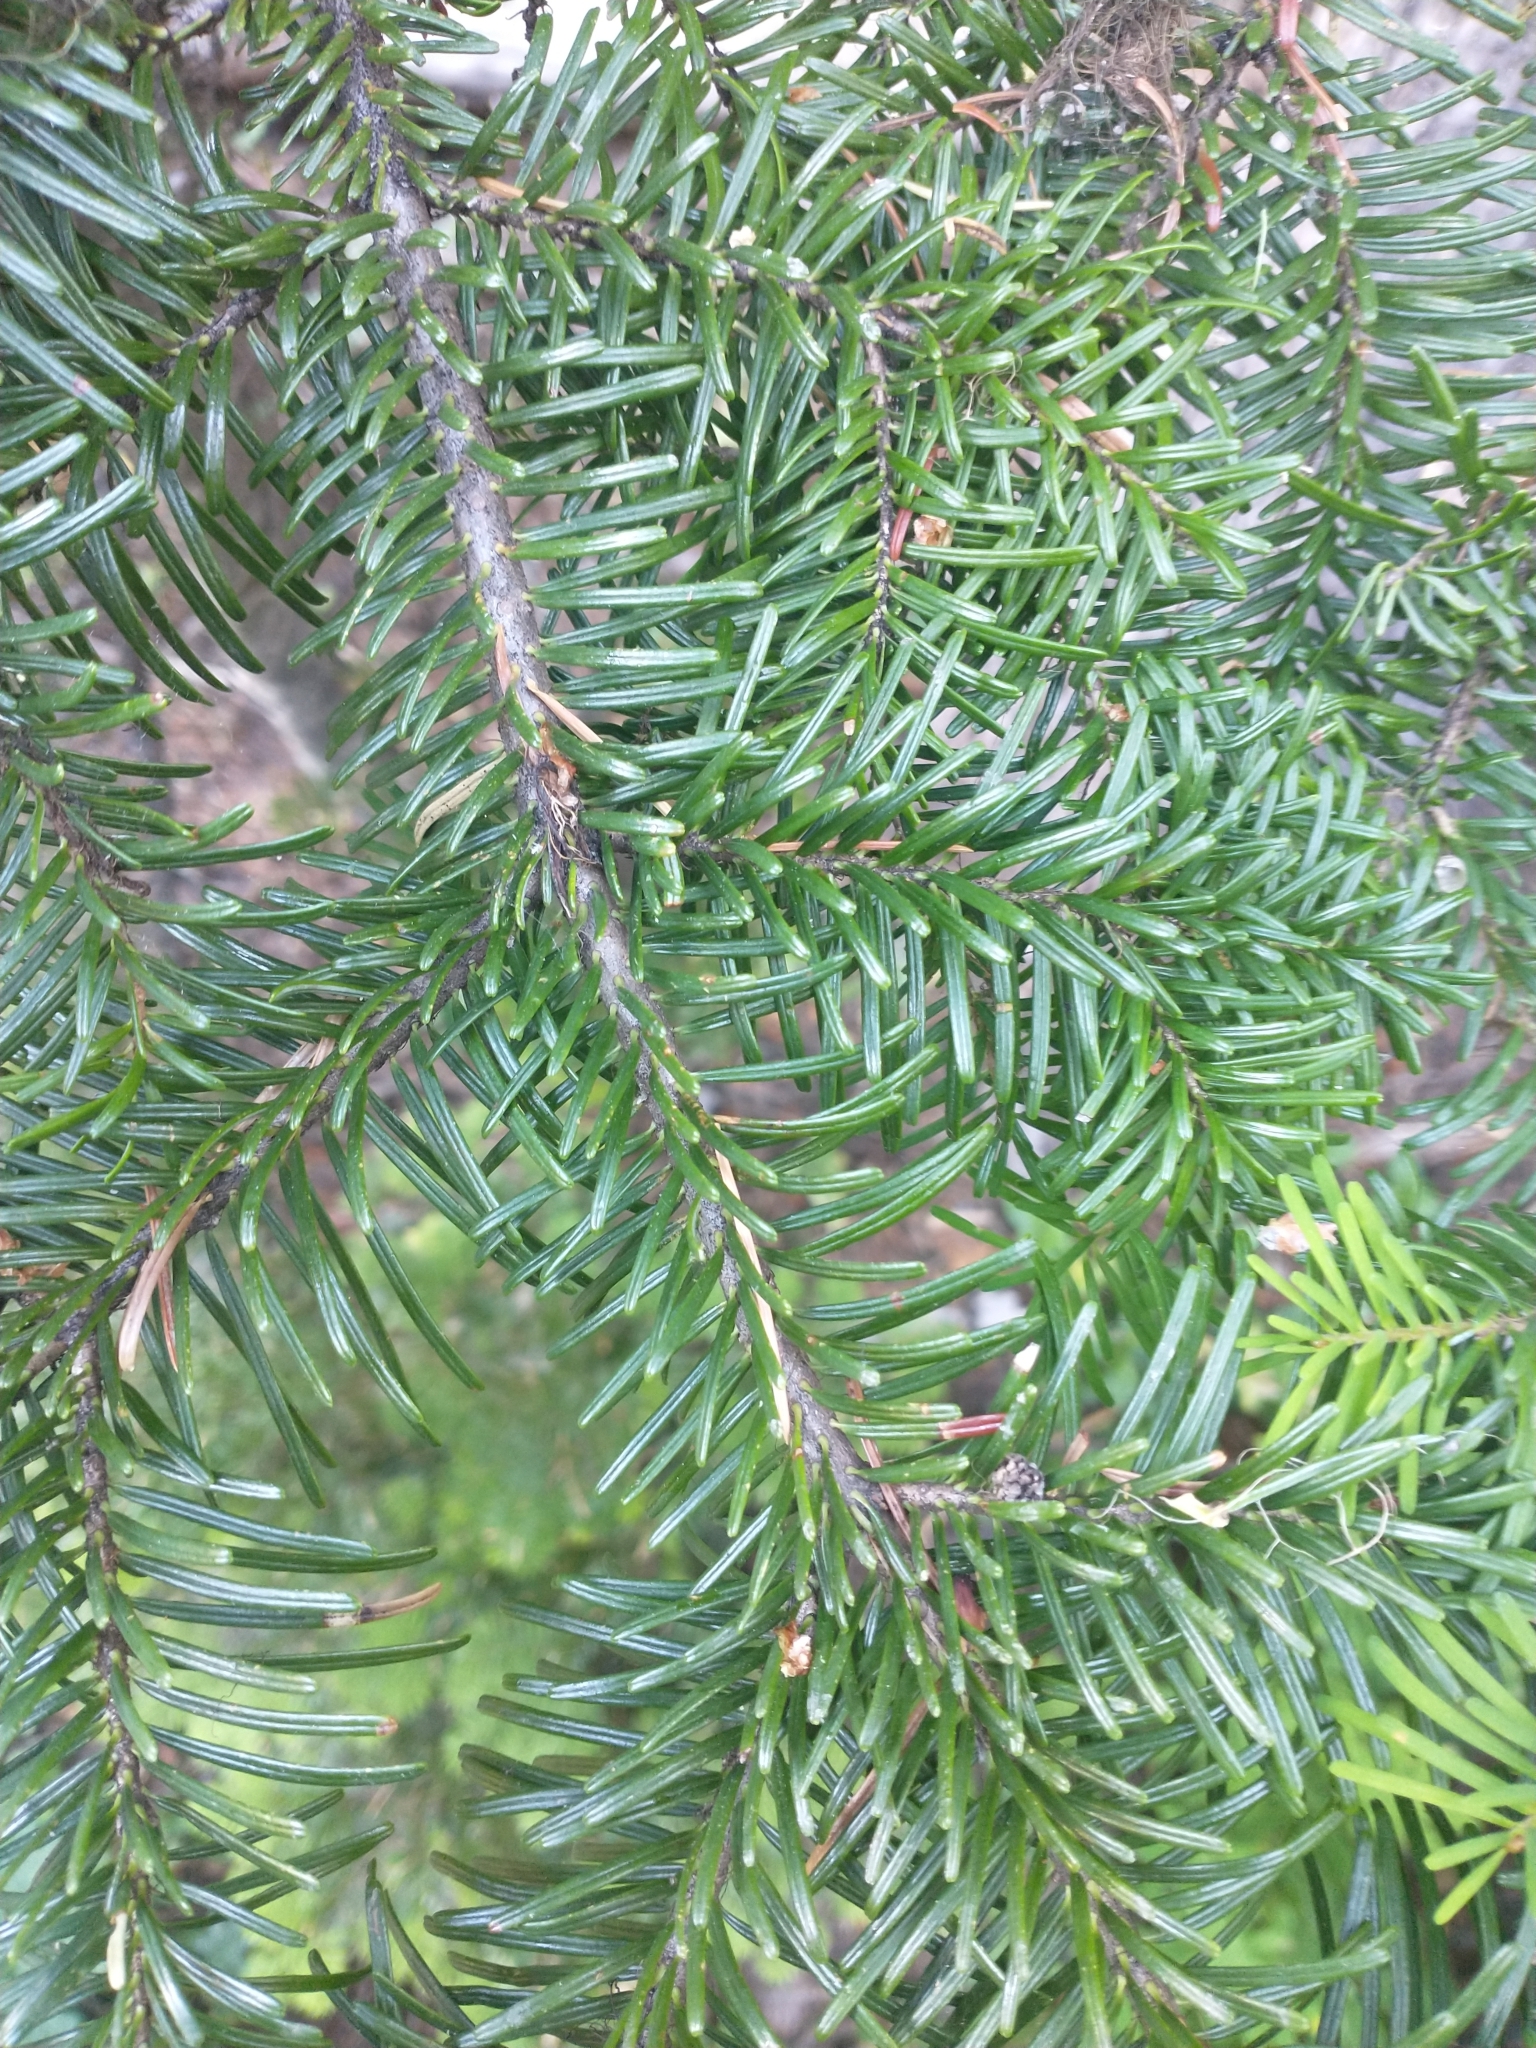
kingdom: Plantae
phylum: Tracheophyta
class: Pinopsida
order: Pinales
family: Pinaceae
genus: Abies
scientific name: Abies amabilis
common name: Pacific silver fir
